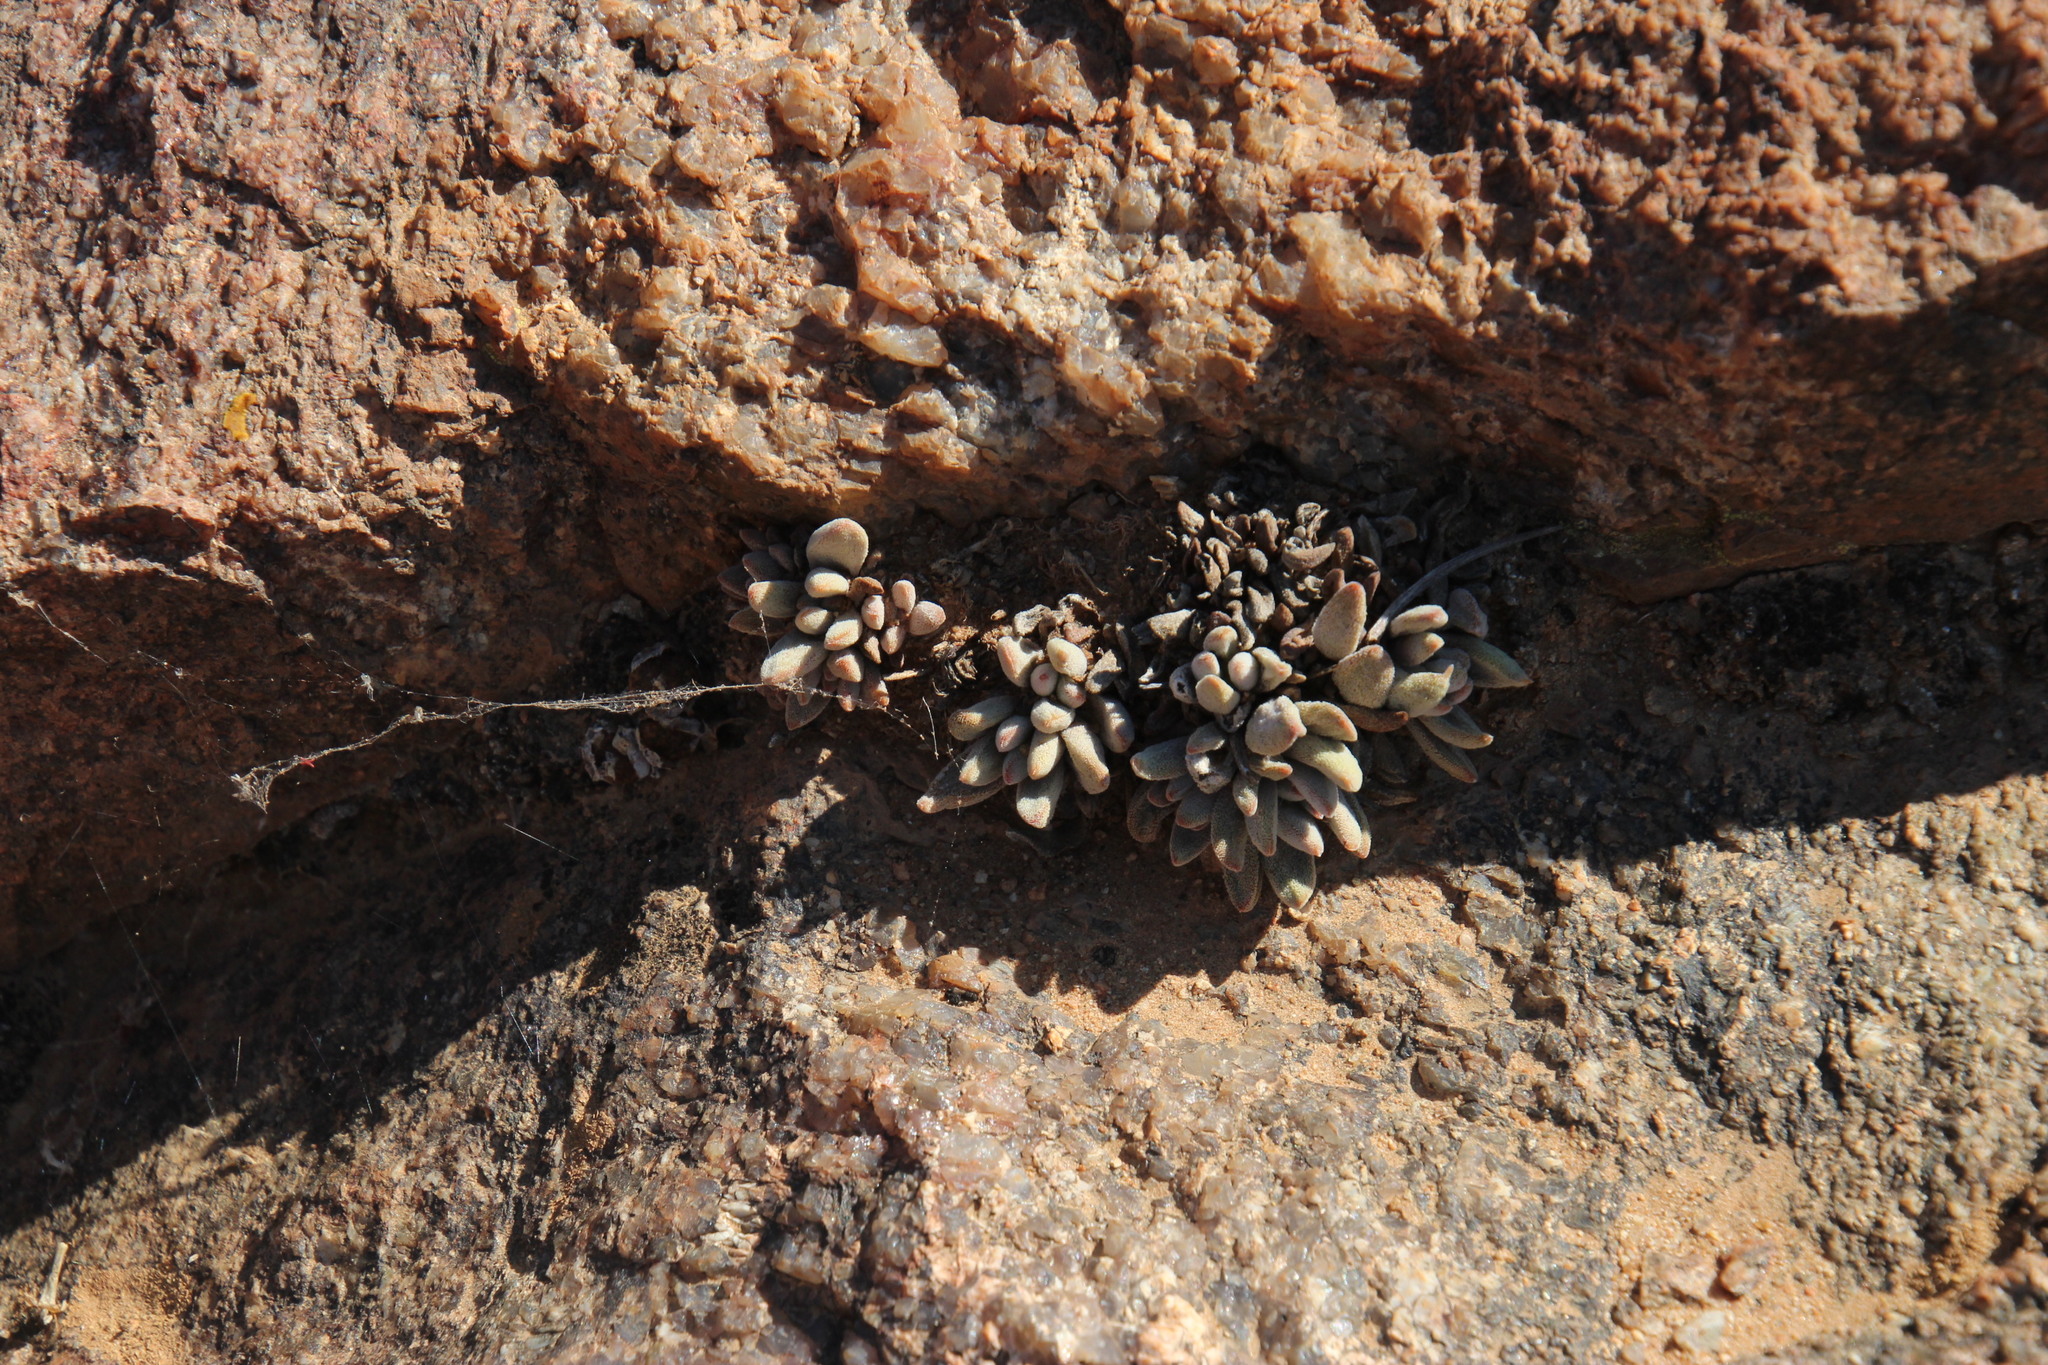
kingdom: Plantae
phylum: Tracheophyta
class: Magnoliopsida
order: Saxifragales
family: Crassulaceae
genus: Crassula
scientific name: Crassula namaquensis
